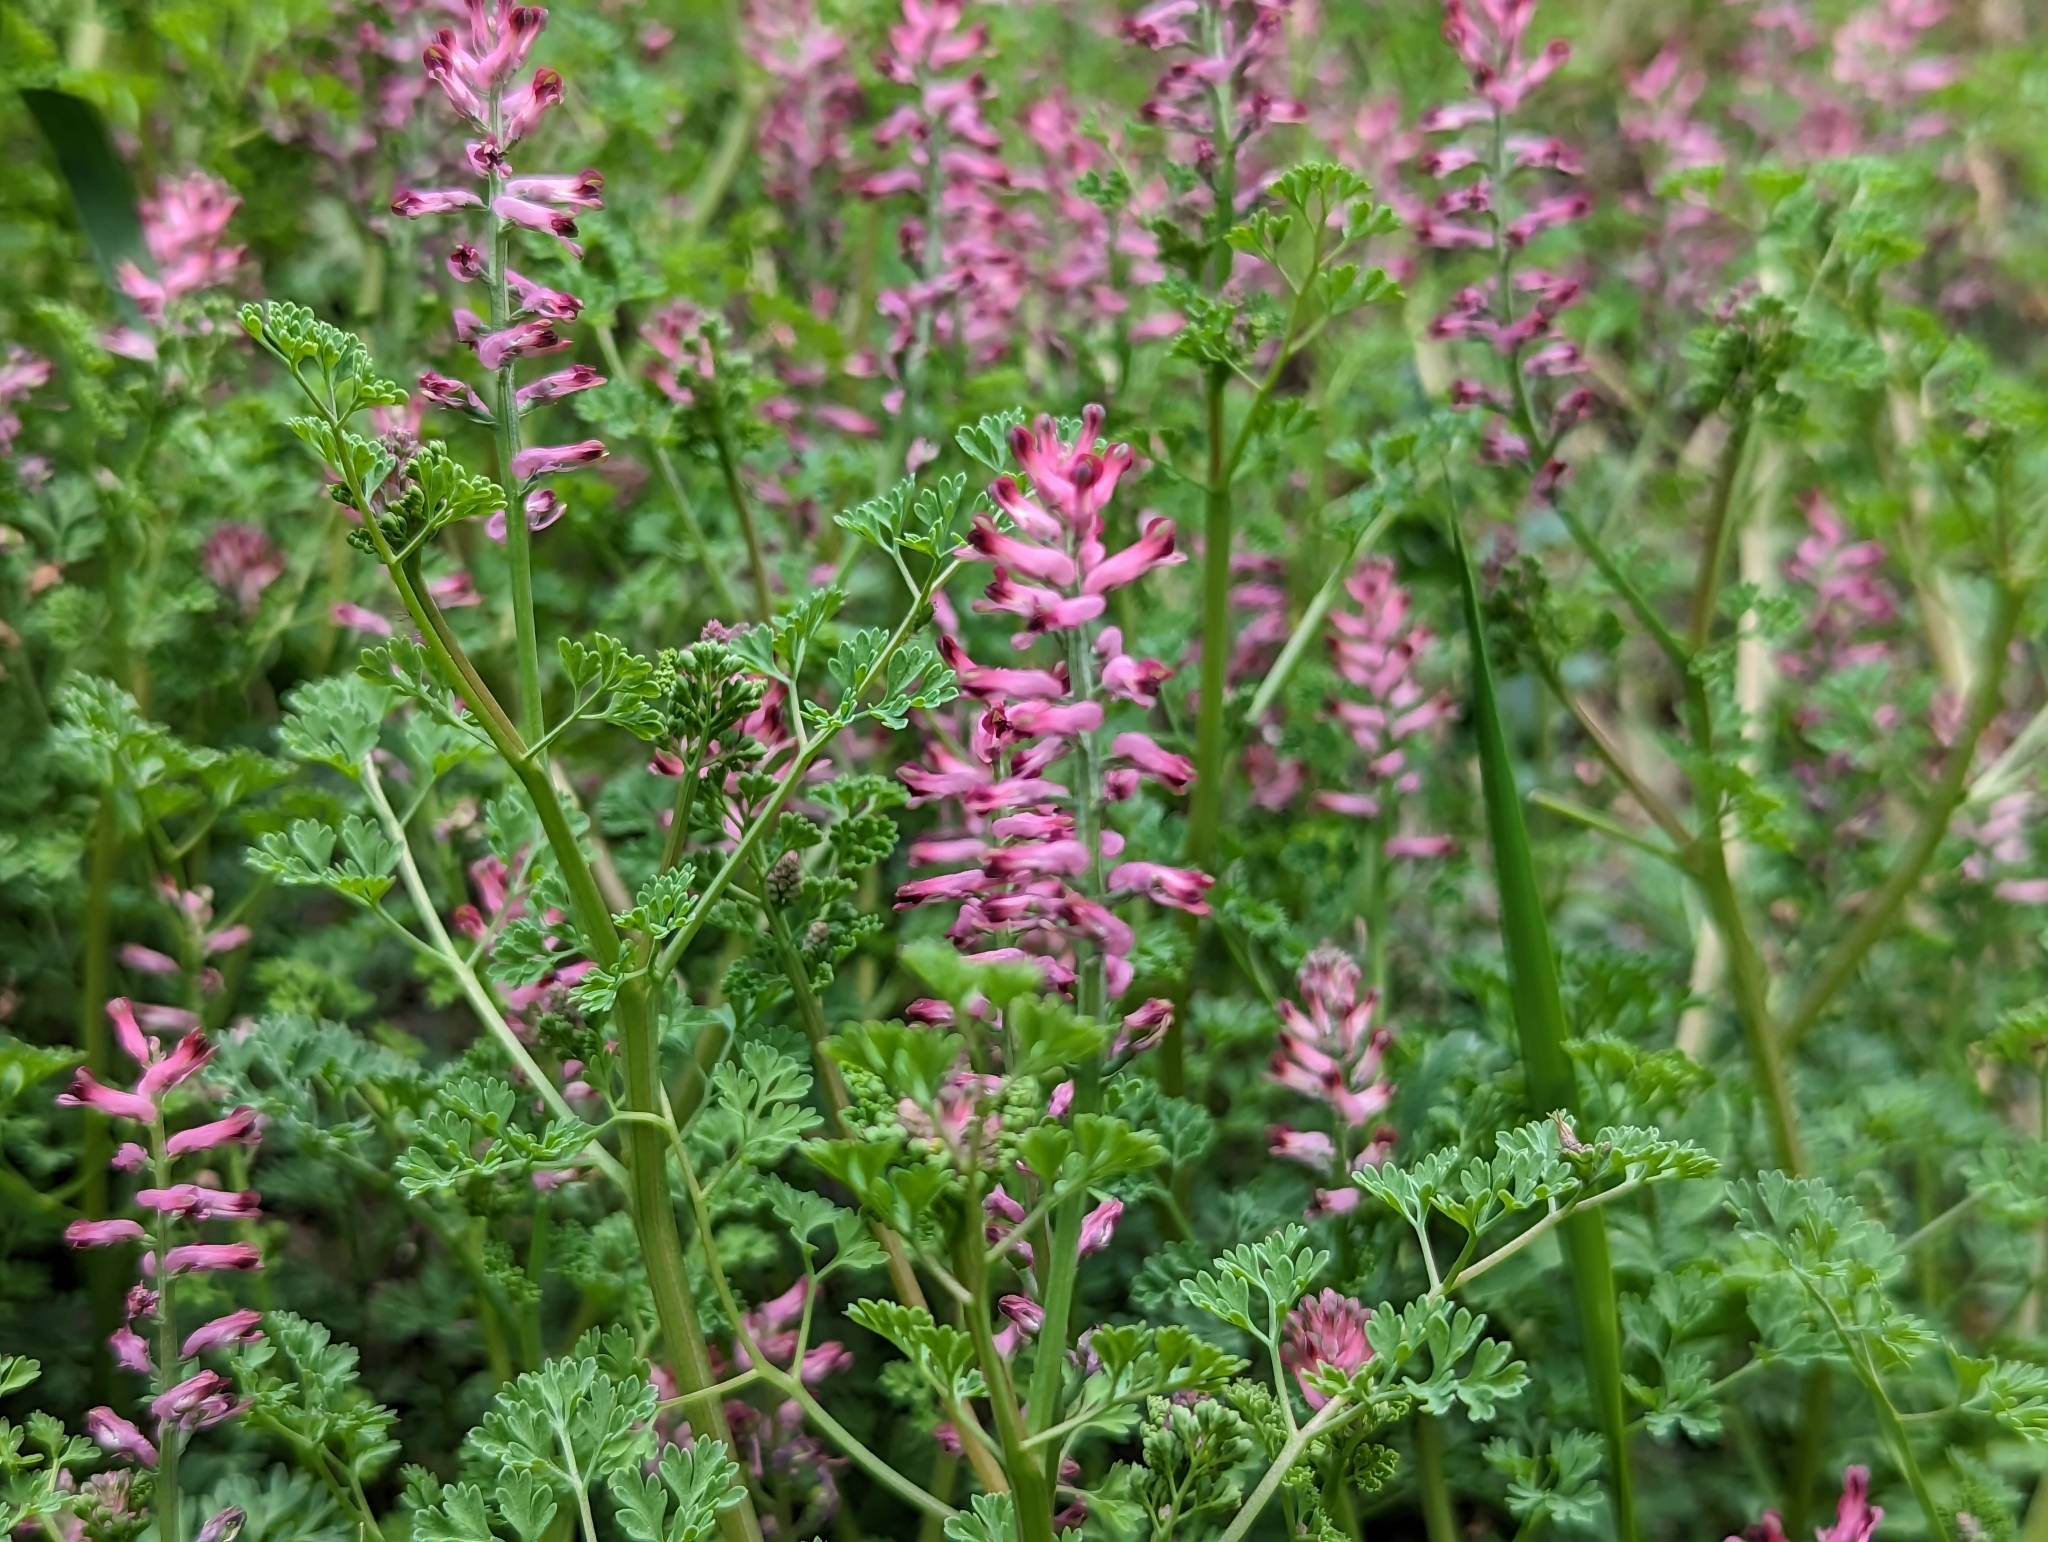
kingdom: Plantae
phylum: Tracheophyta
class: Magnoliopsida
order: Ranunculales
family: Papaveraceae
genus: Fumaria
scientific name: Fumaria officinalis
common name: Common fumitory
